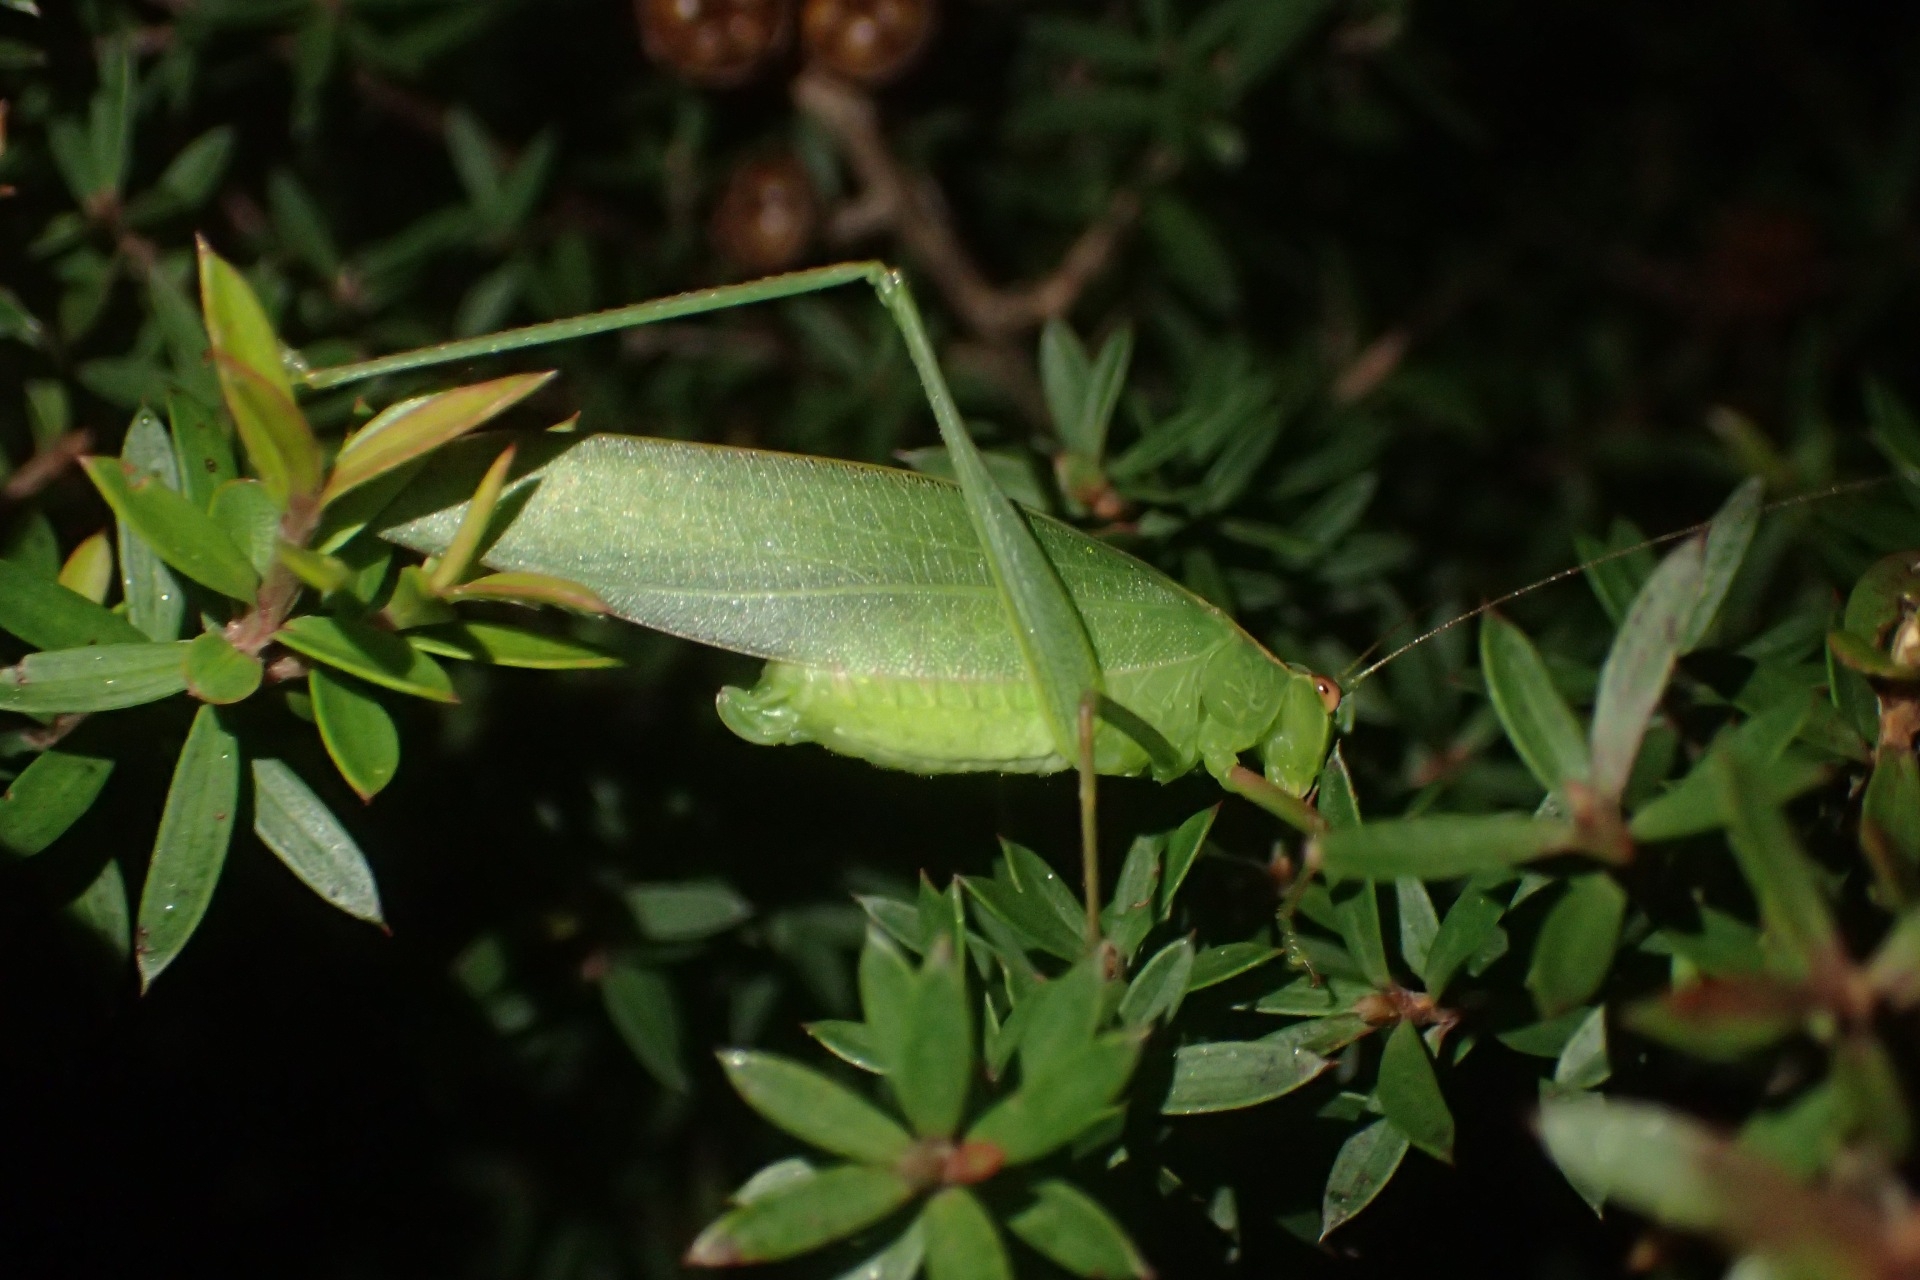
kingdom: Animalia
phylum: Arthropoda
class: Insecta
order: Orthoptera
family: Tettigoniidae
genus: Caedicia
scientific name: Caedicia simplex
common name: Common garden katydid
